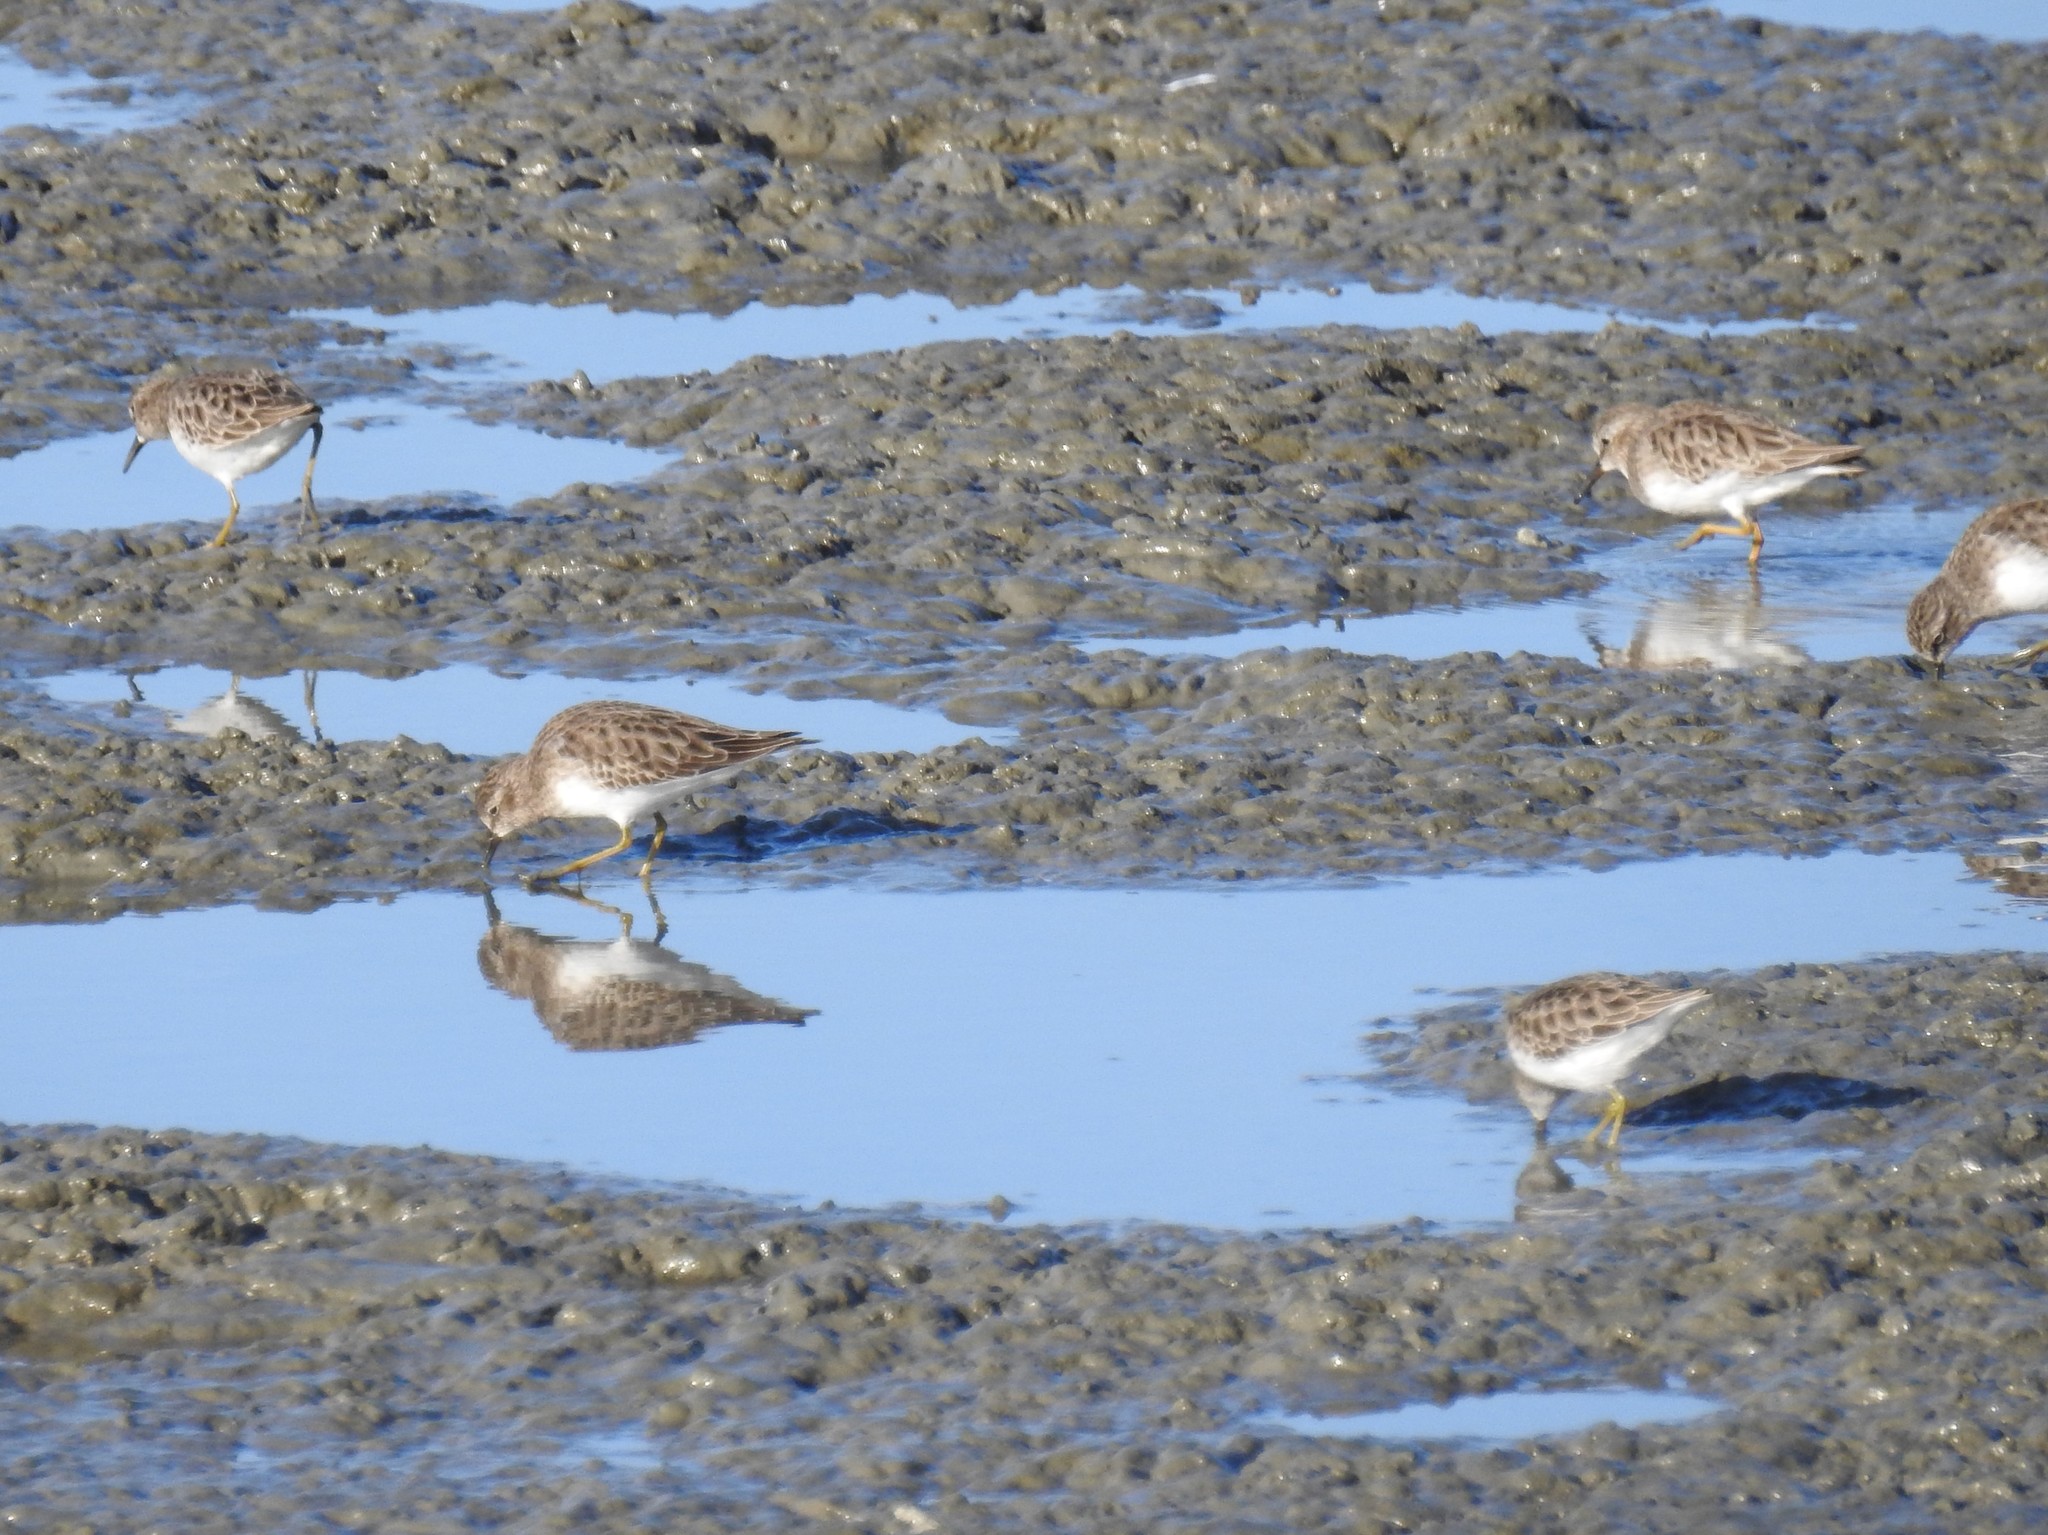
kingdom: Animalia
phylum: Chordata
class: Aves
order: Charadriiformes
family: Scolopacidae
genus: Calidris
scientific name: Calidris minutilla
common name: Least sandpiper
